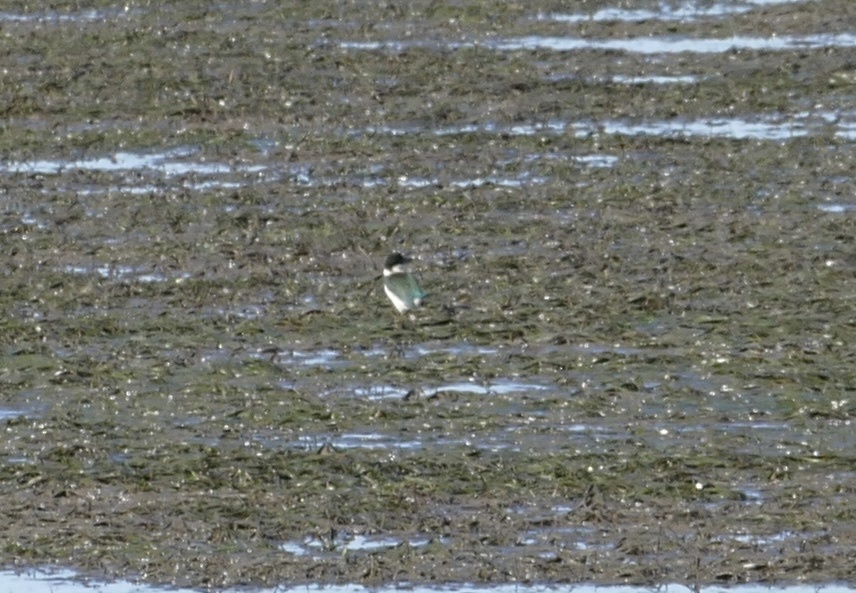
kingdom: Animalia
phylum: Chordata
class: Aves
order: Coraciiformes
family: Alcedinidae
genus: Todiramphus
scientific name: Todiramphus sordidus
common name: Torresian kingfisher
